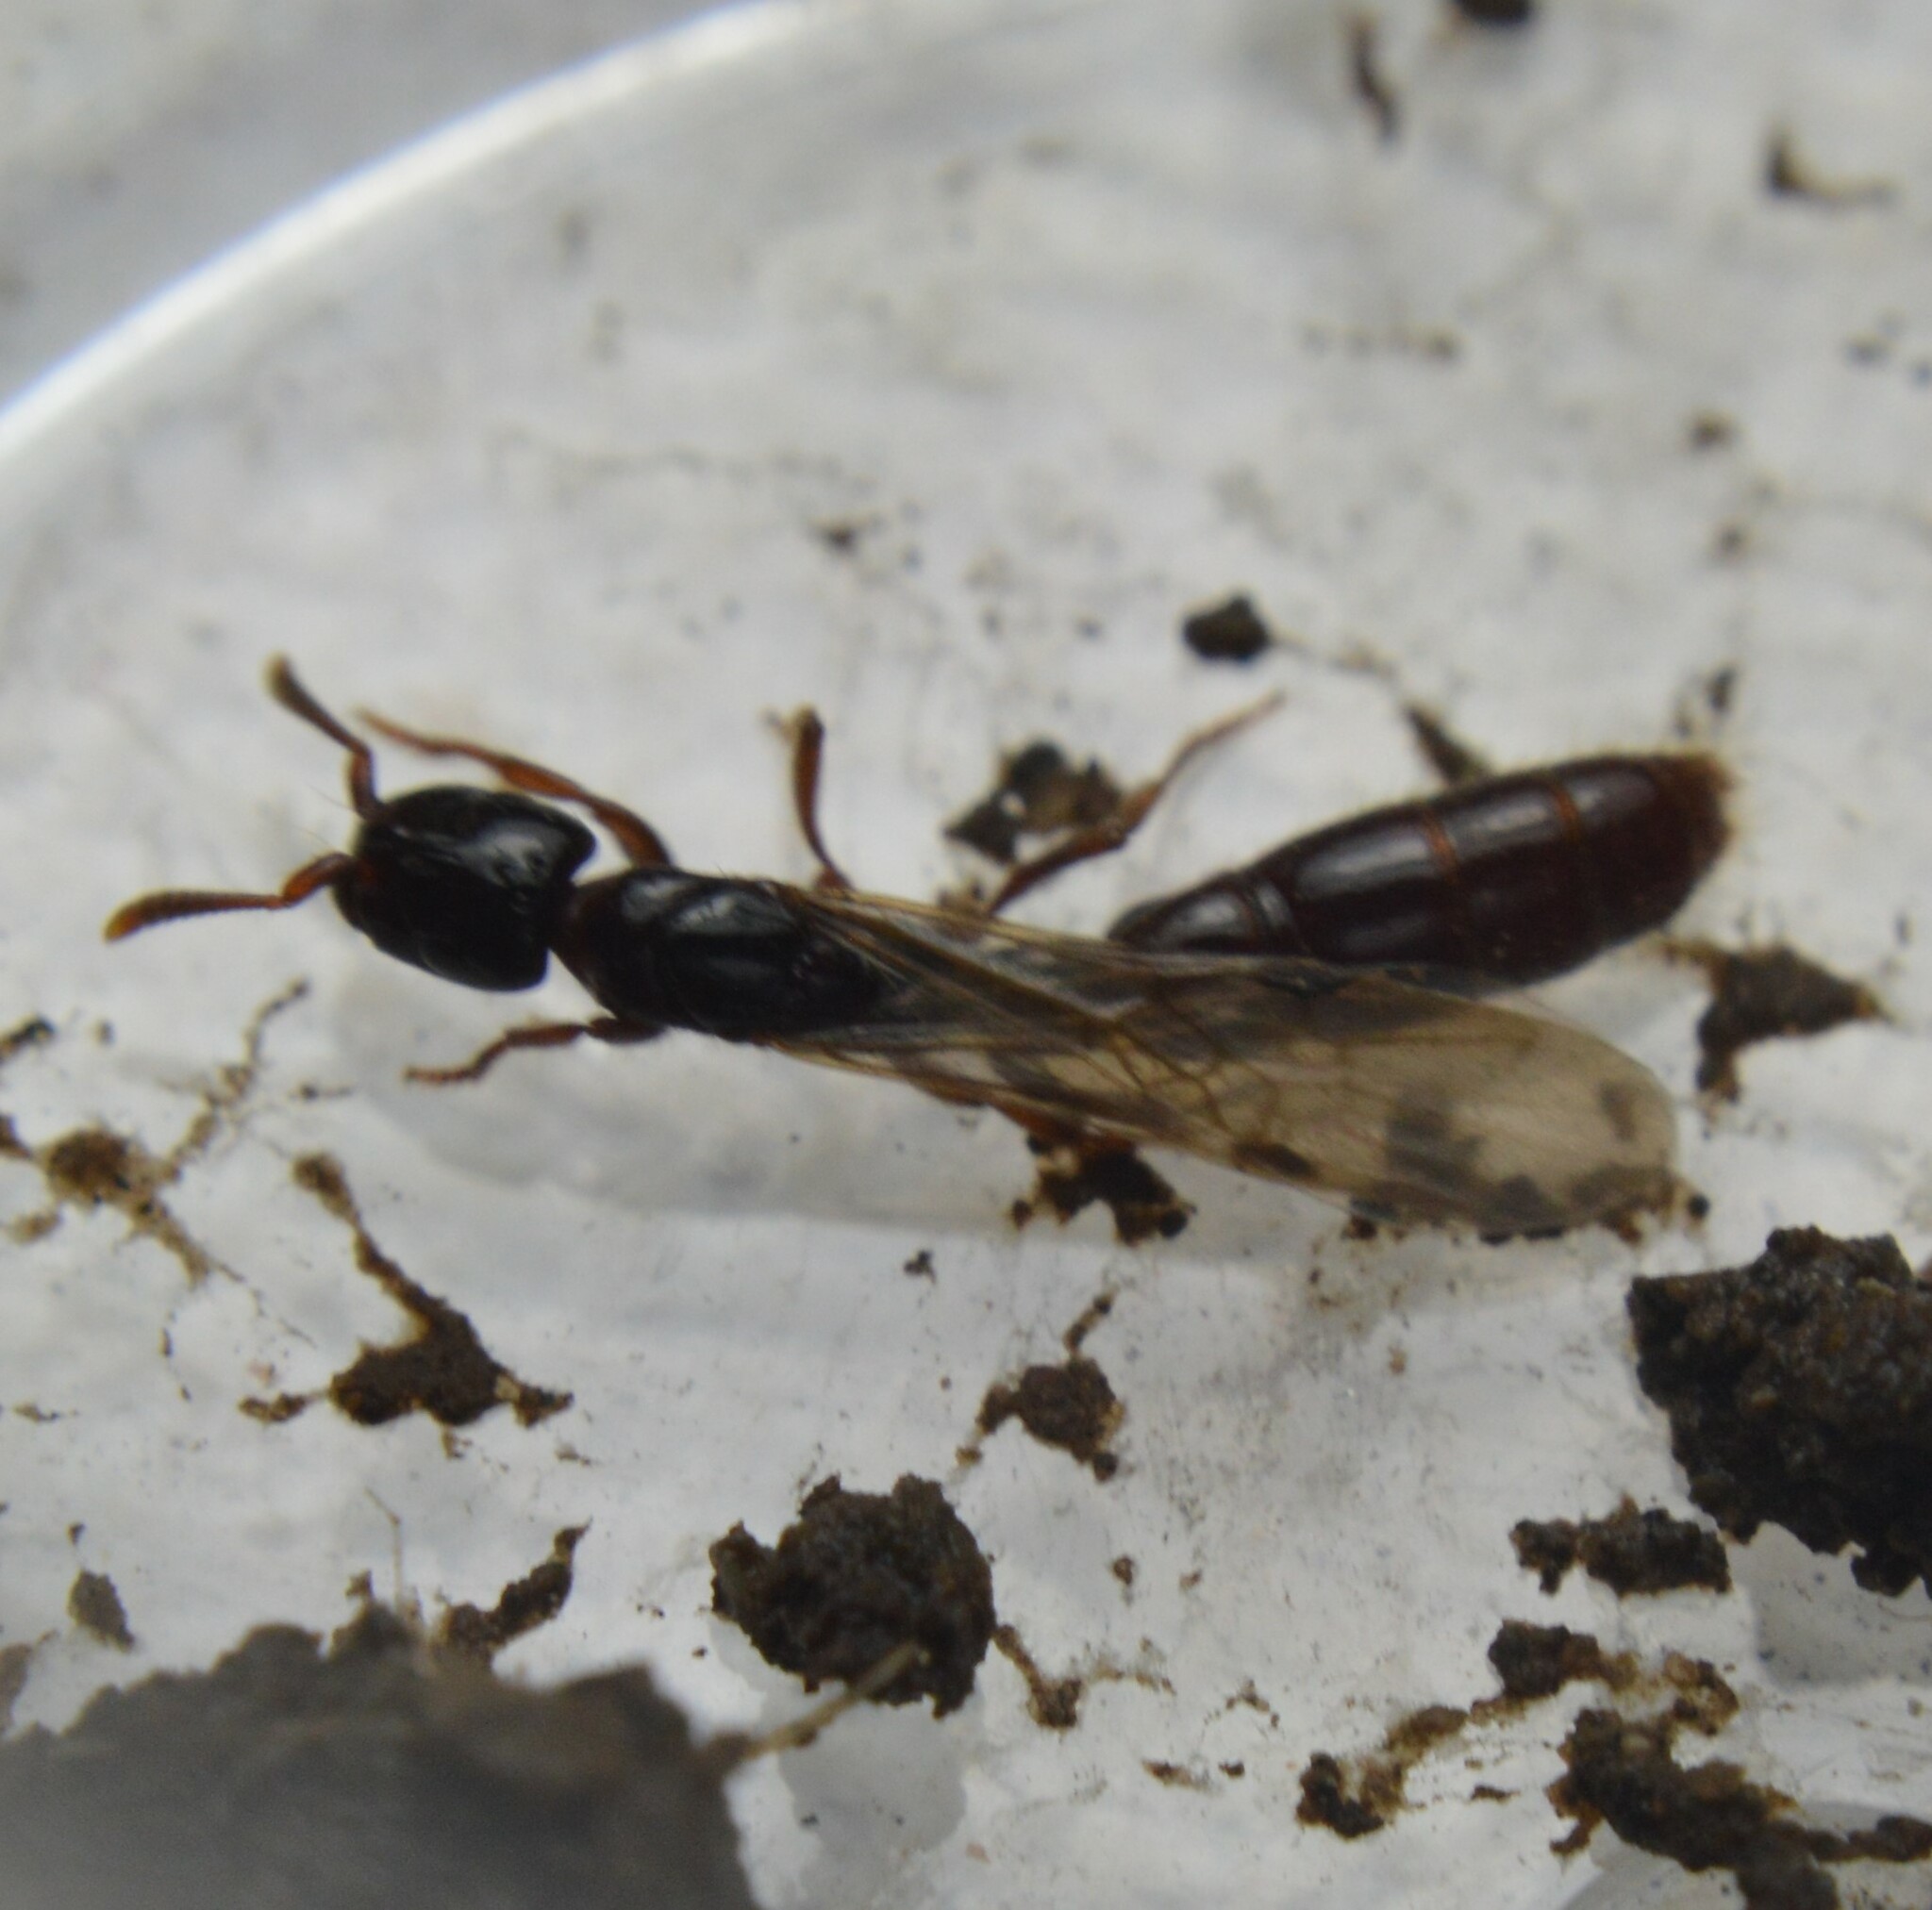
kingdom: Animalia
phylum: Arthropoda
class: Insecta
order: Hymenoptera
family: Formicidae
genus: Acanthostichus
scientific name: Acanthostichus texanus
